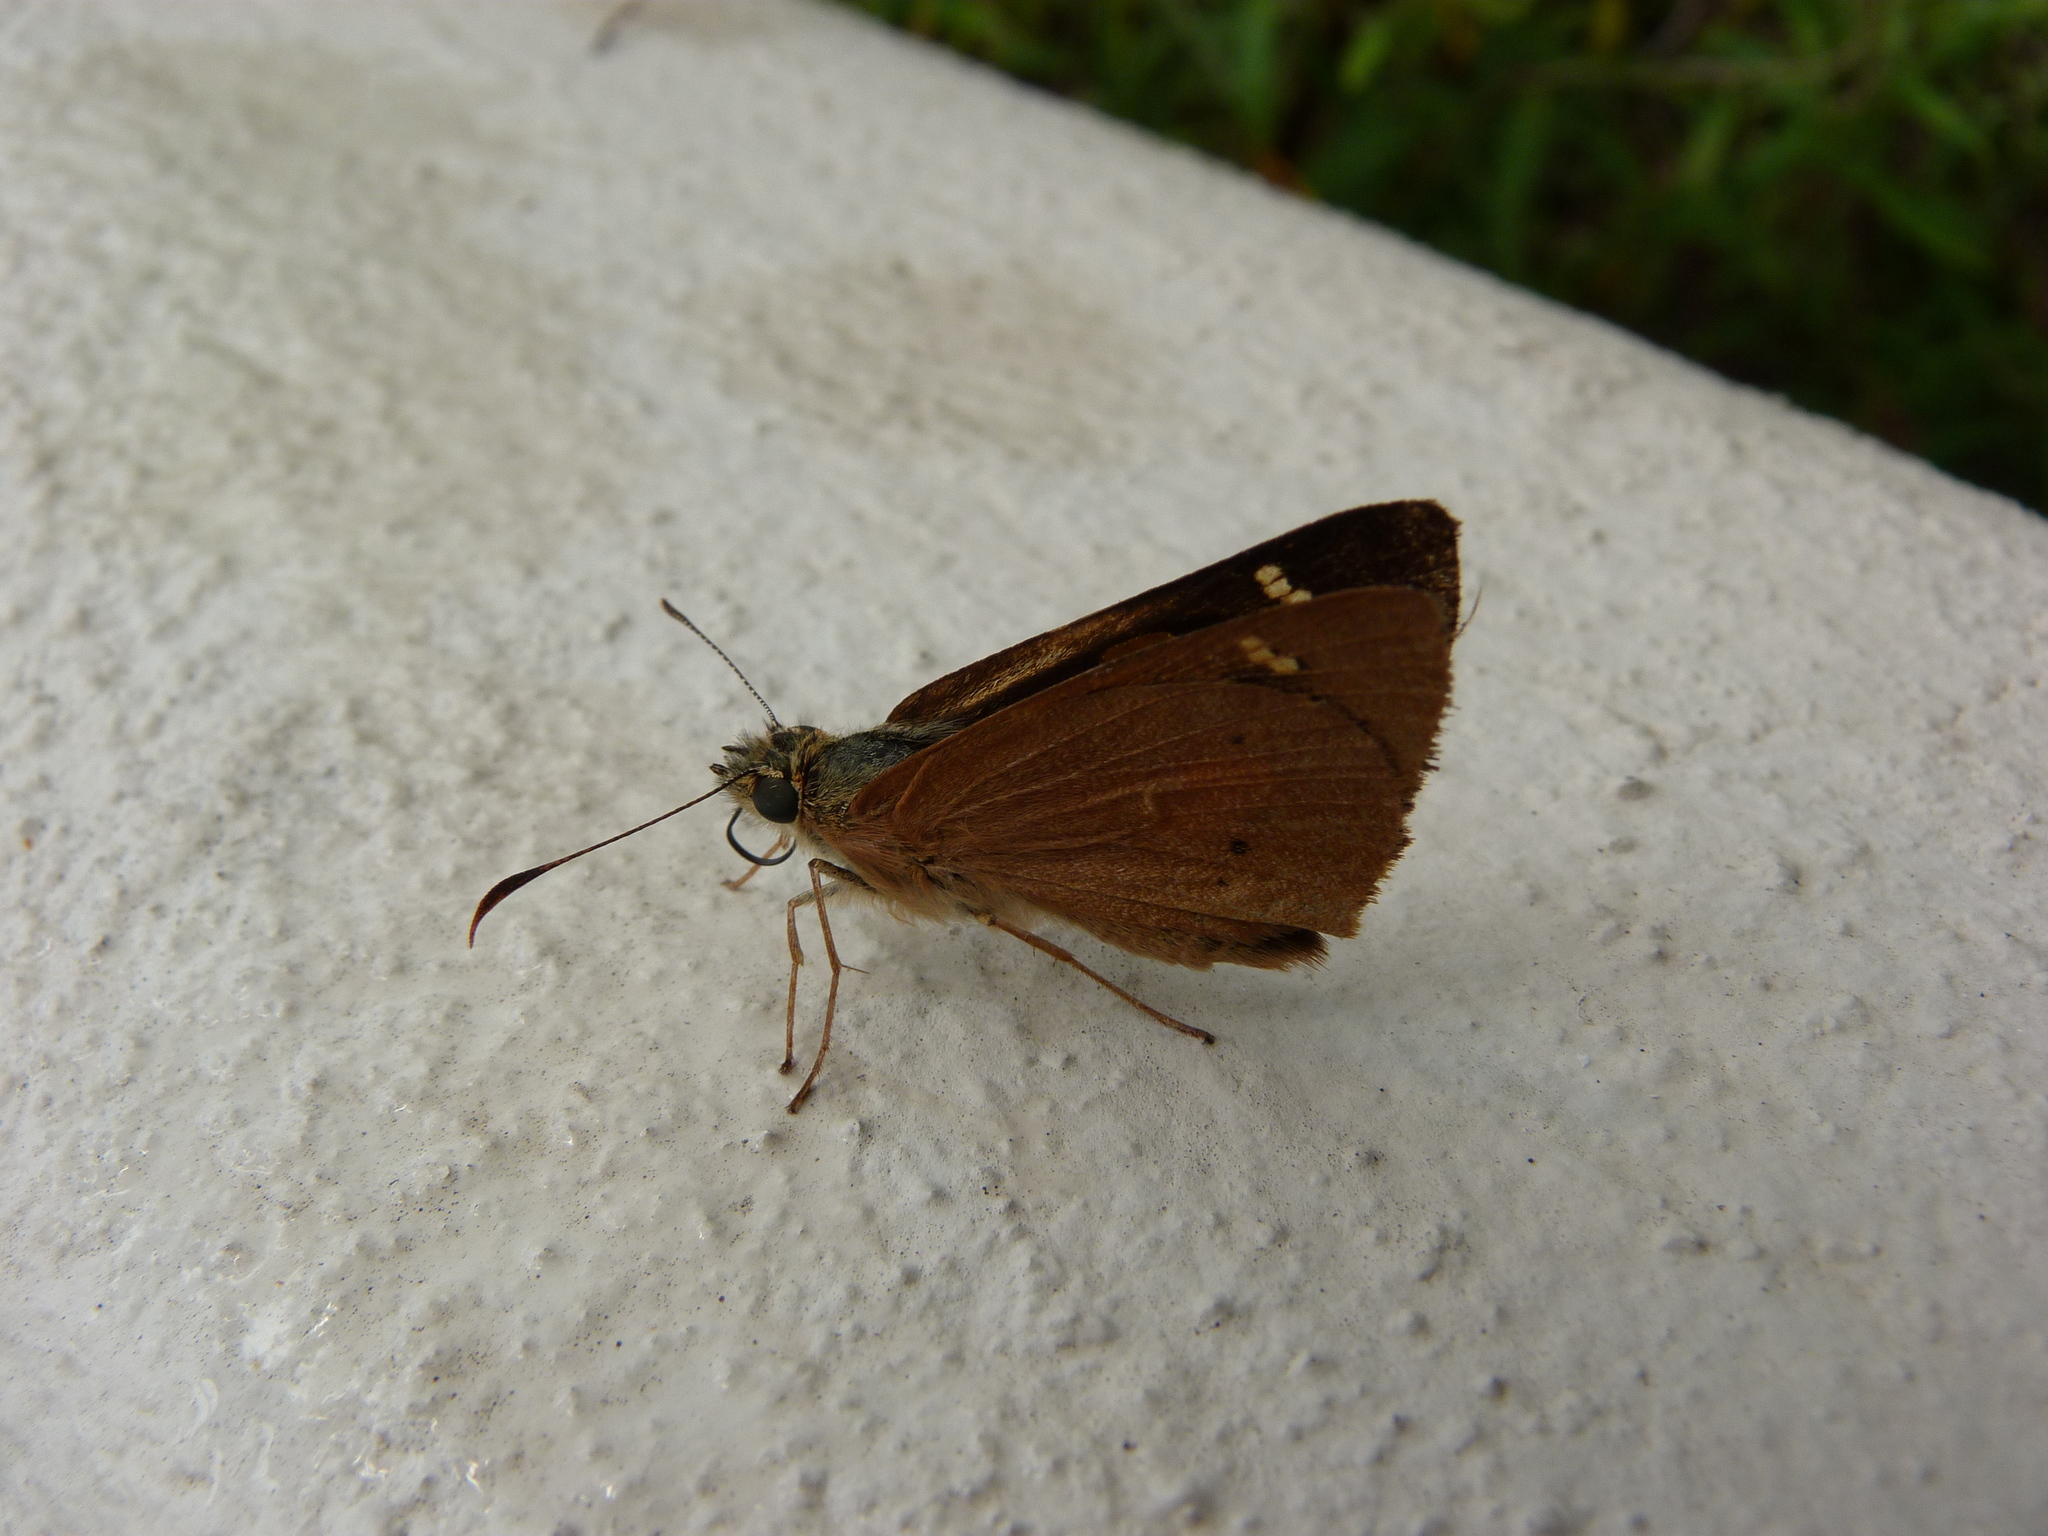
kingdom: Animalia
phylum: Arthropoda
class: Insecta
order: Lepidoptera
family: Hesperiidae
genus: Hesperilla
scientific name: Hesperilla idothea
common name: Flame sedge-skipper
